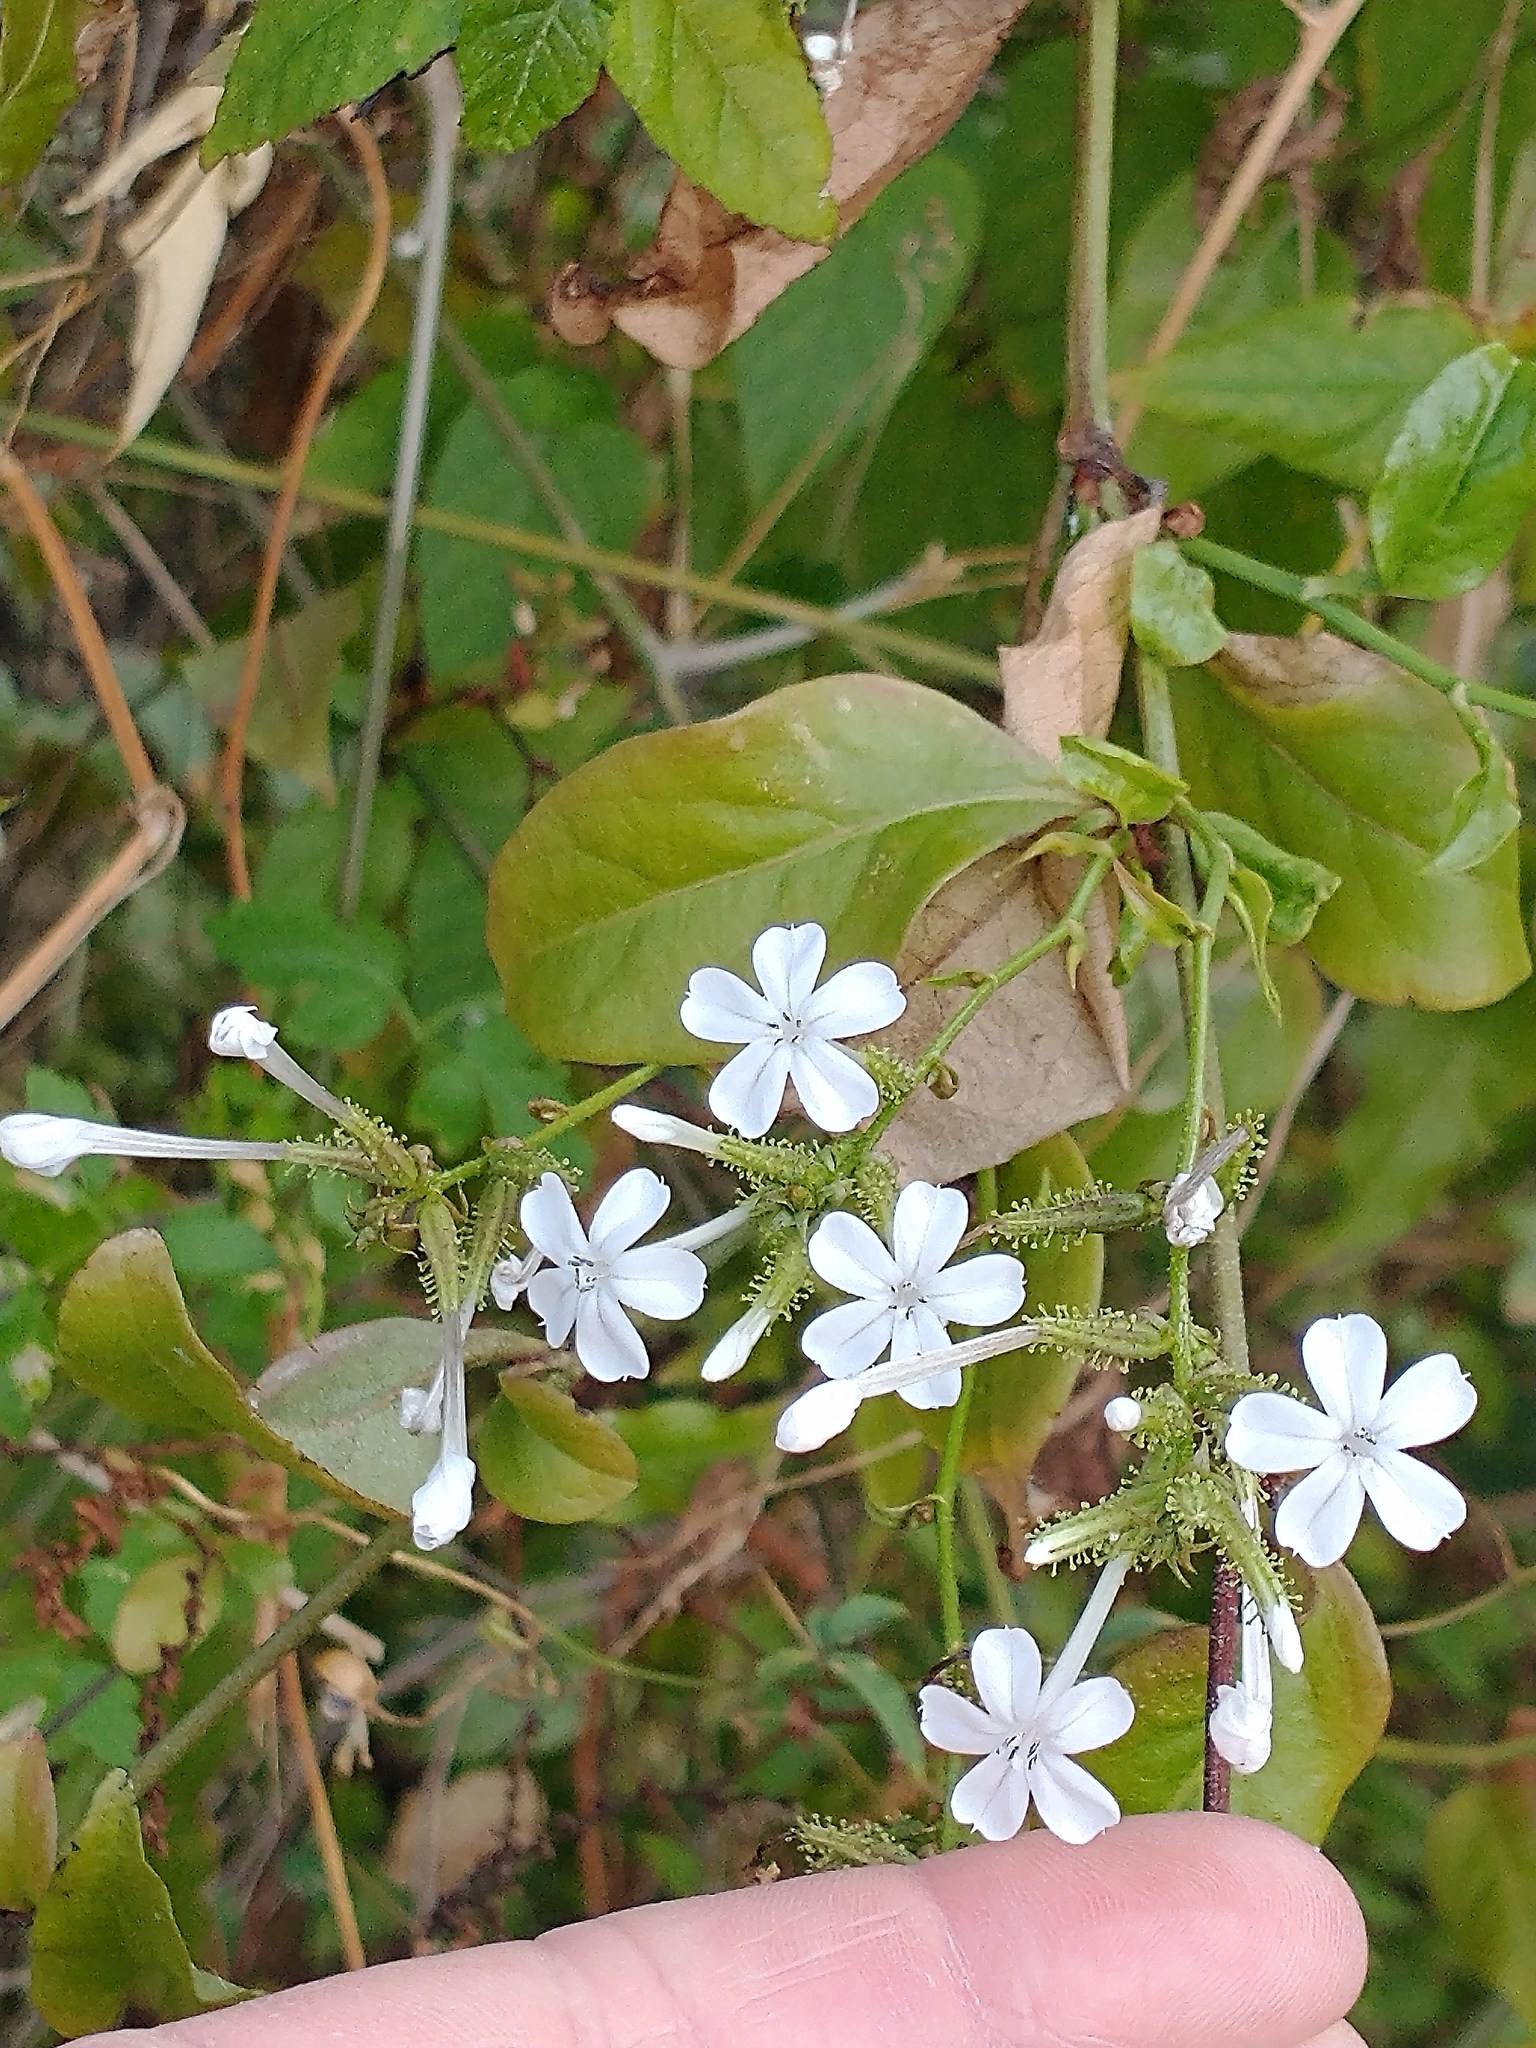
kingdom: Plantae
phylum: Tracheophyta
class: Magnoliopsida
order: Caryophyllales
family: Plumbaginaceae
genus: Plumbago
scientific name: Plumbago zeylanica
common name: Doctorbush
